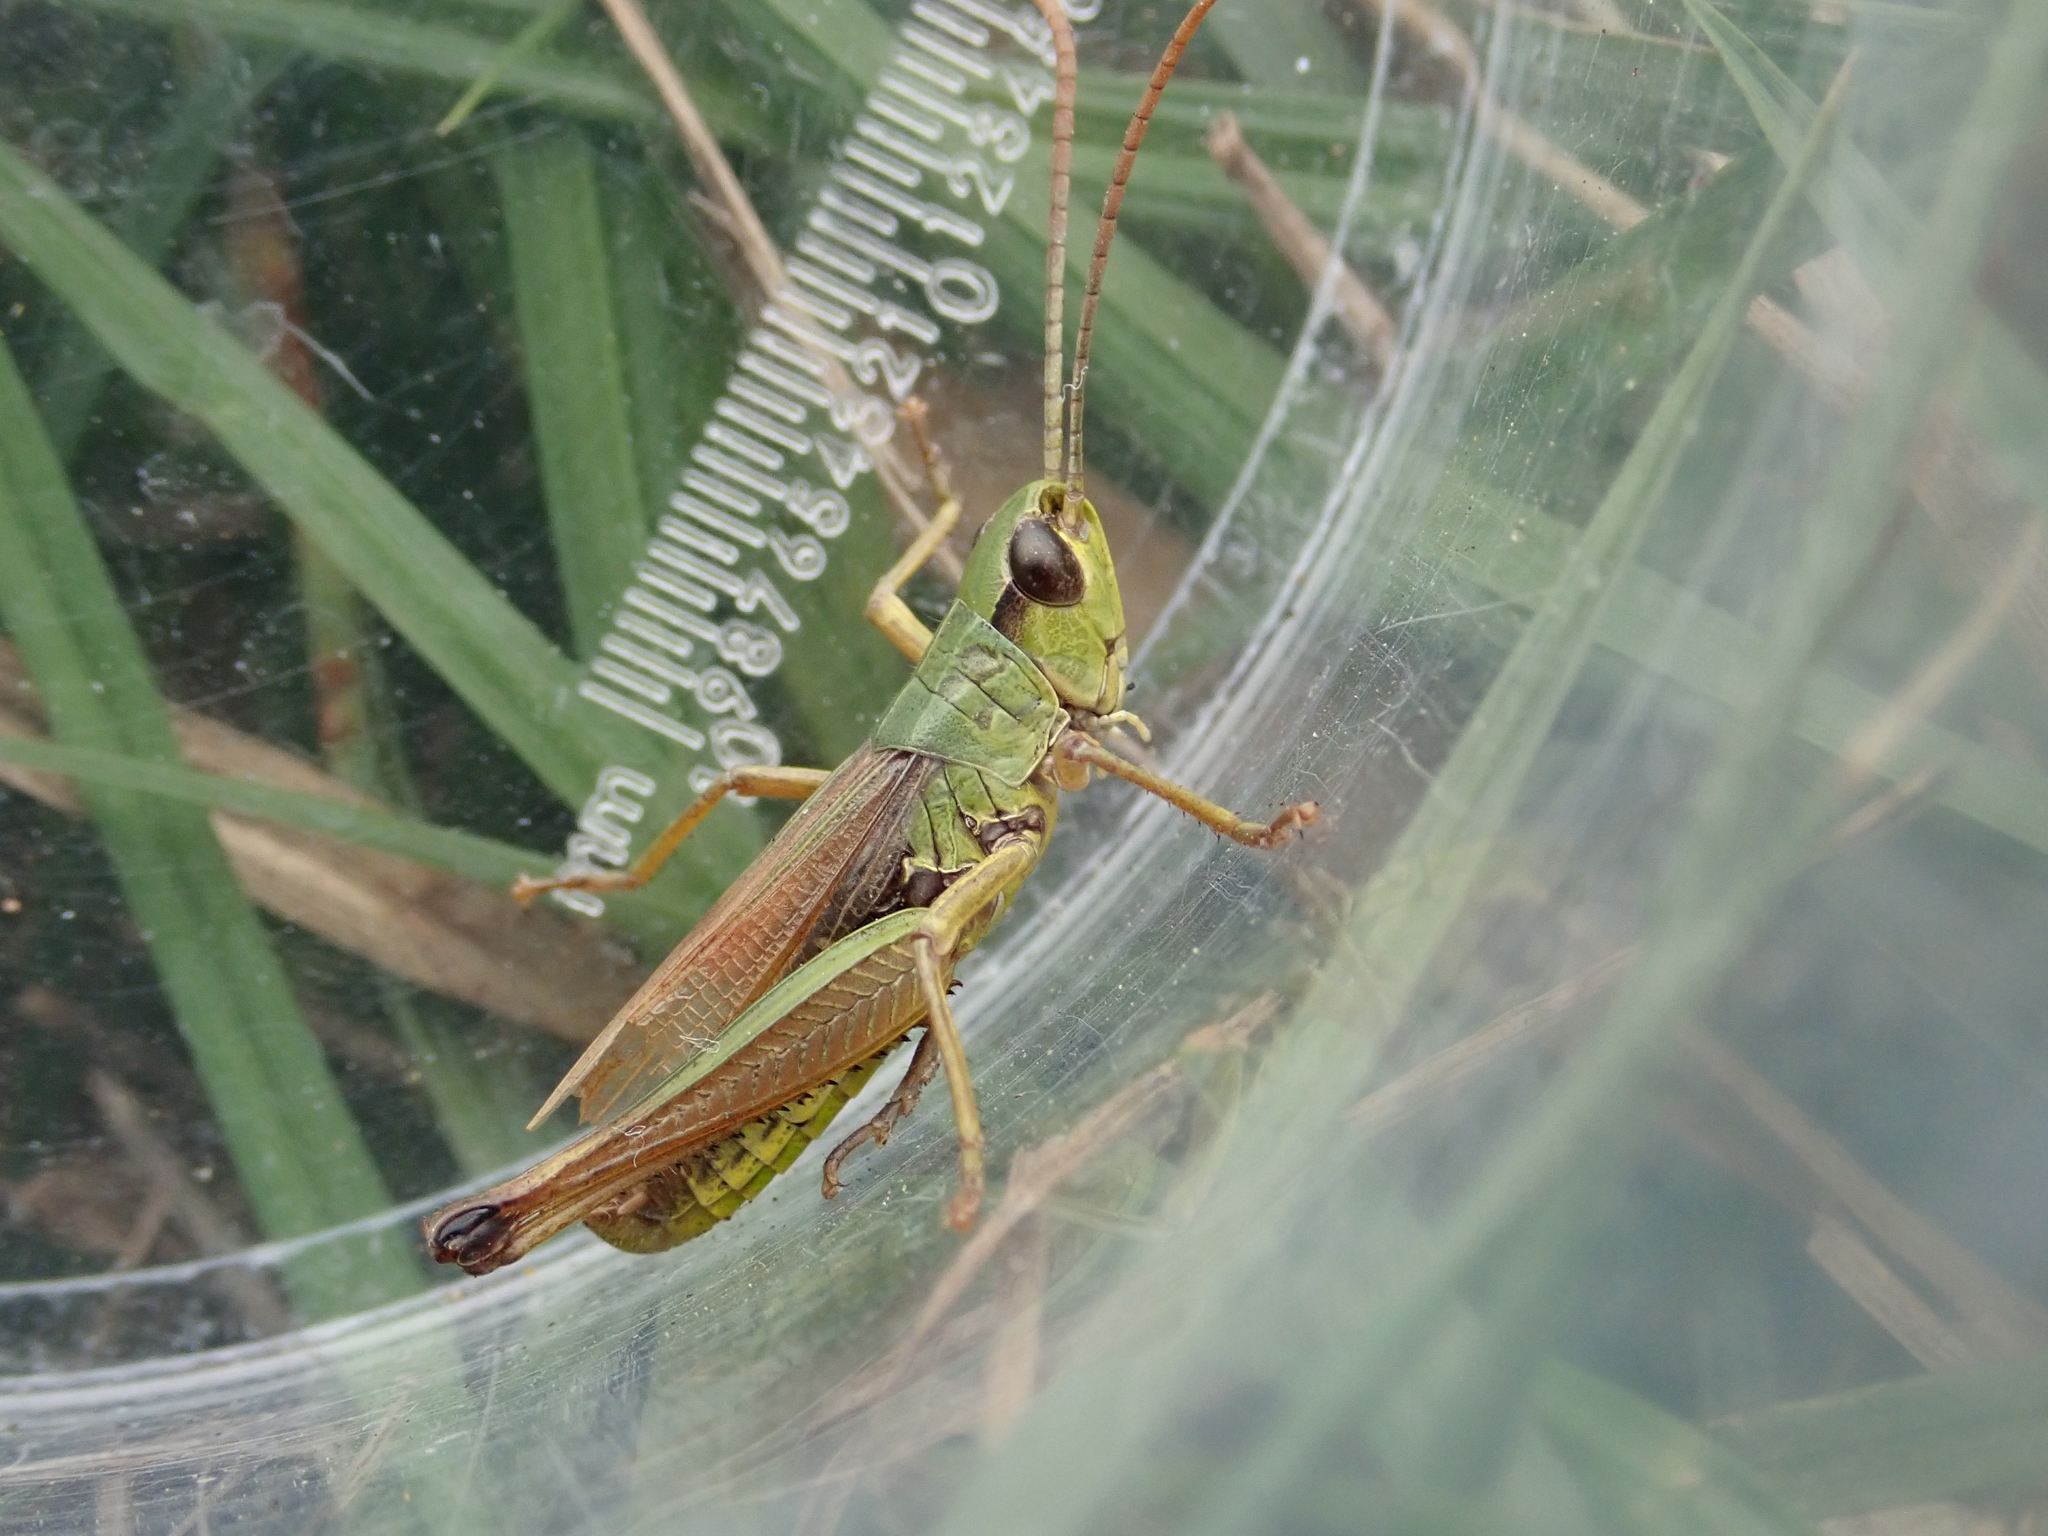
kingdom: Animalia
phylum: Arthropoda
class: Insecta
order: Orthoptera
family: Acrididae
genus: Pseudochorthippus
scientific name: Pseudochorthippus parallelus
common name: Meadow grasshopper
